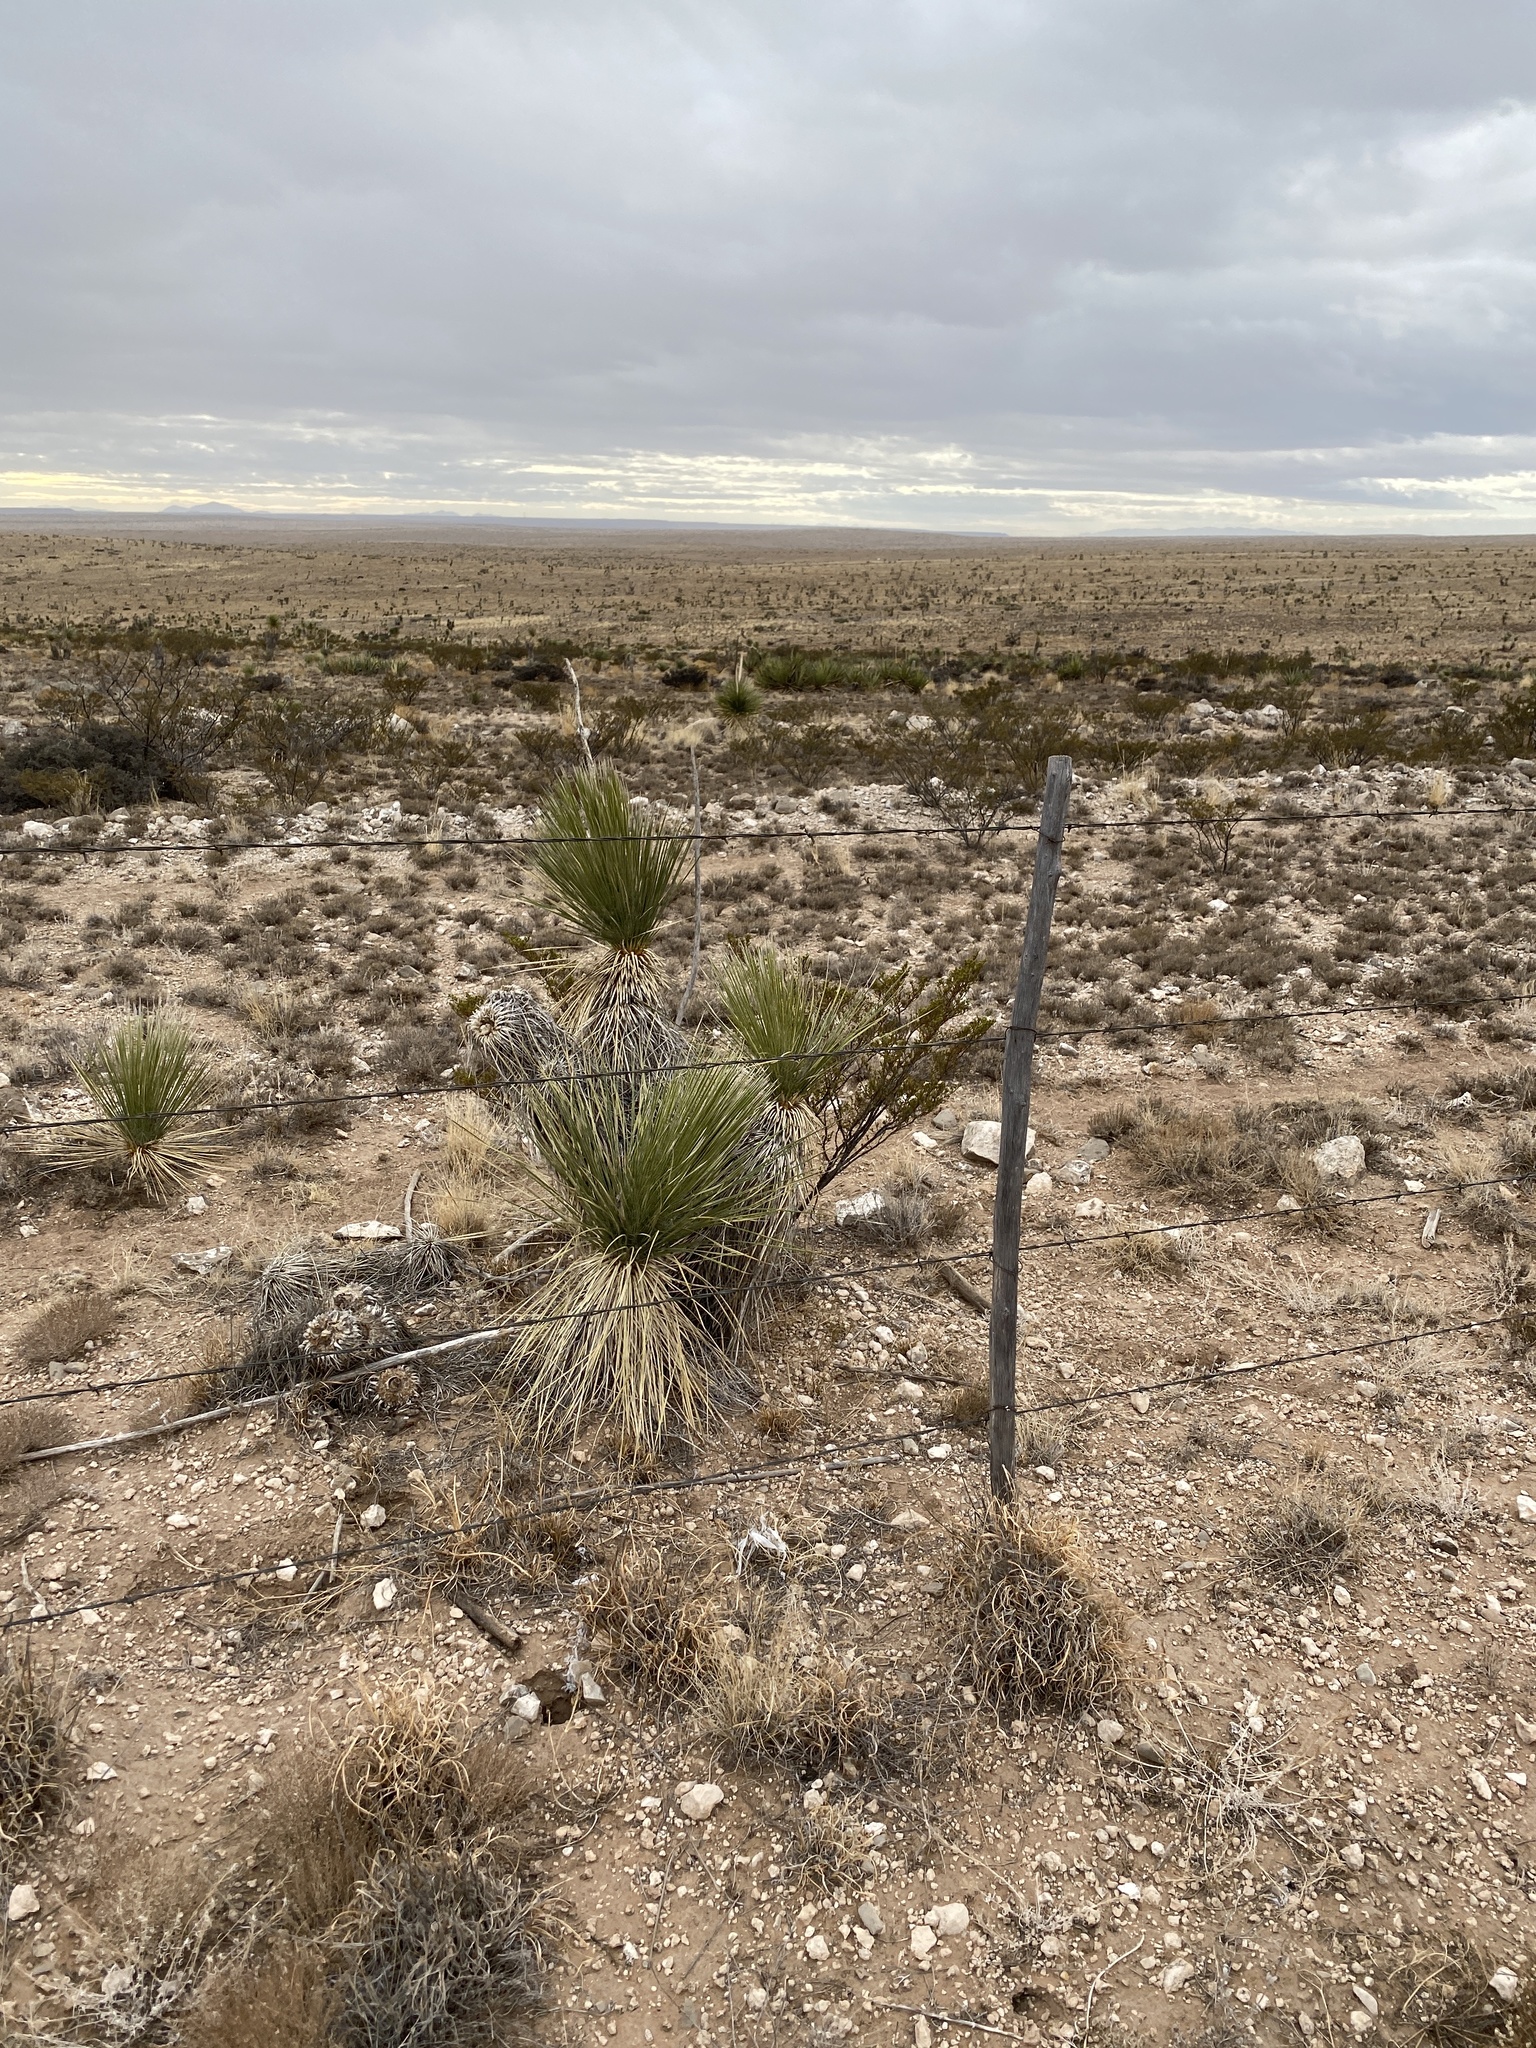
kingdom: Plantae
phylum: Tracheophyta
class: Liliopsida
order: Asparagales
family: Asparagaceae
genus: Yucca
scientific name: Yucca elata
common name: Palmella
